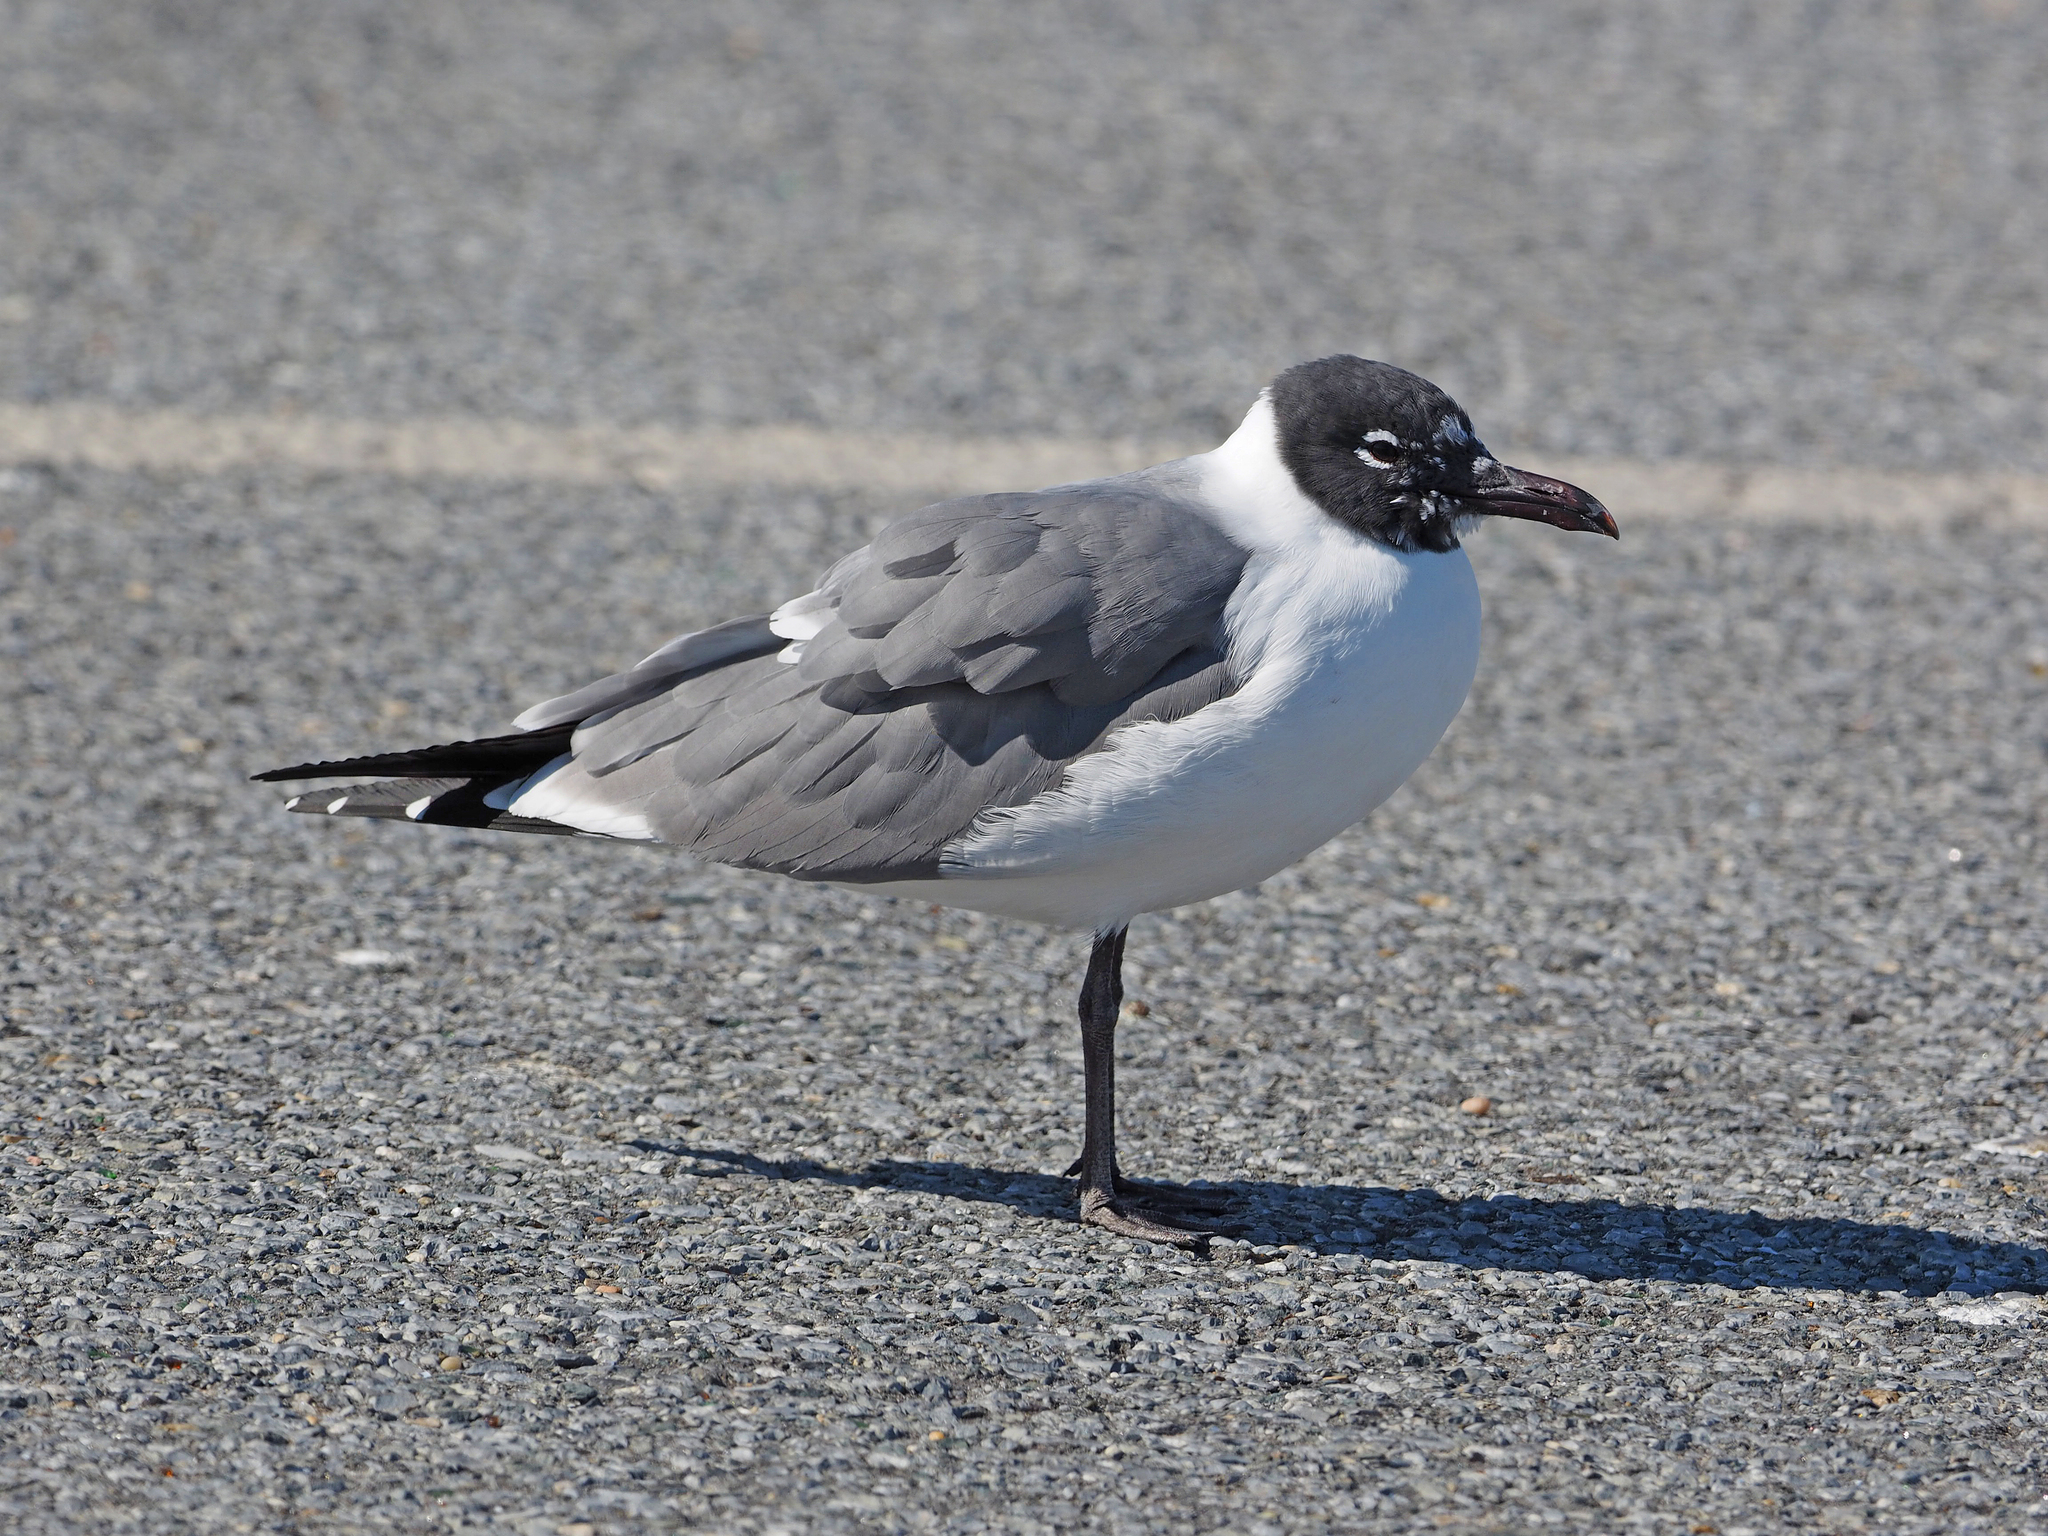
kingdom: Animalia
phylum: Chordata
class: Aves
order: Charadriiformes
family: Laridae
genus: Leucophaeus
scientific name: Leucophaeus atricilla
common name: Laughing gull
